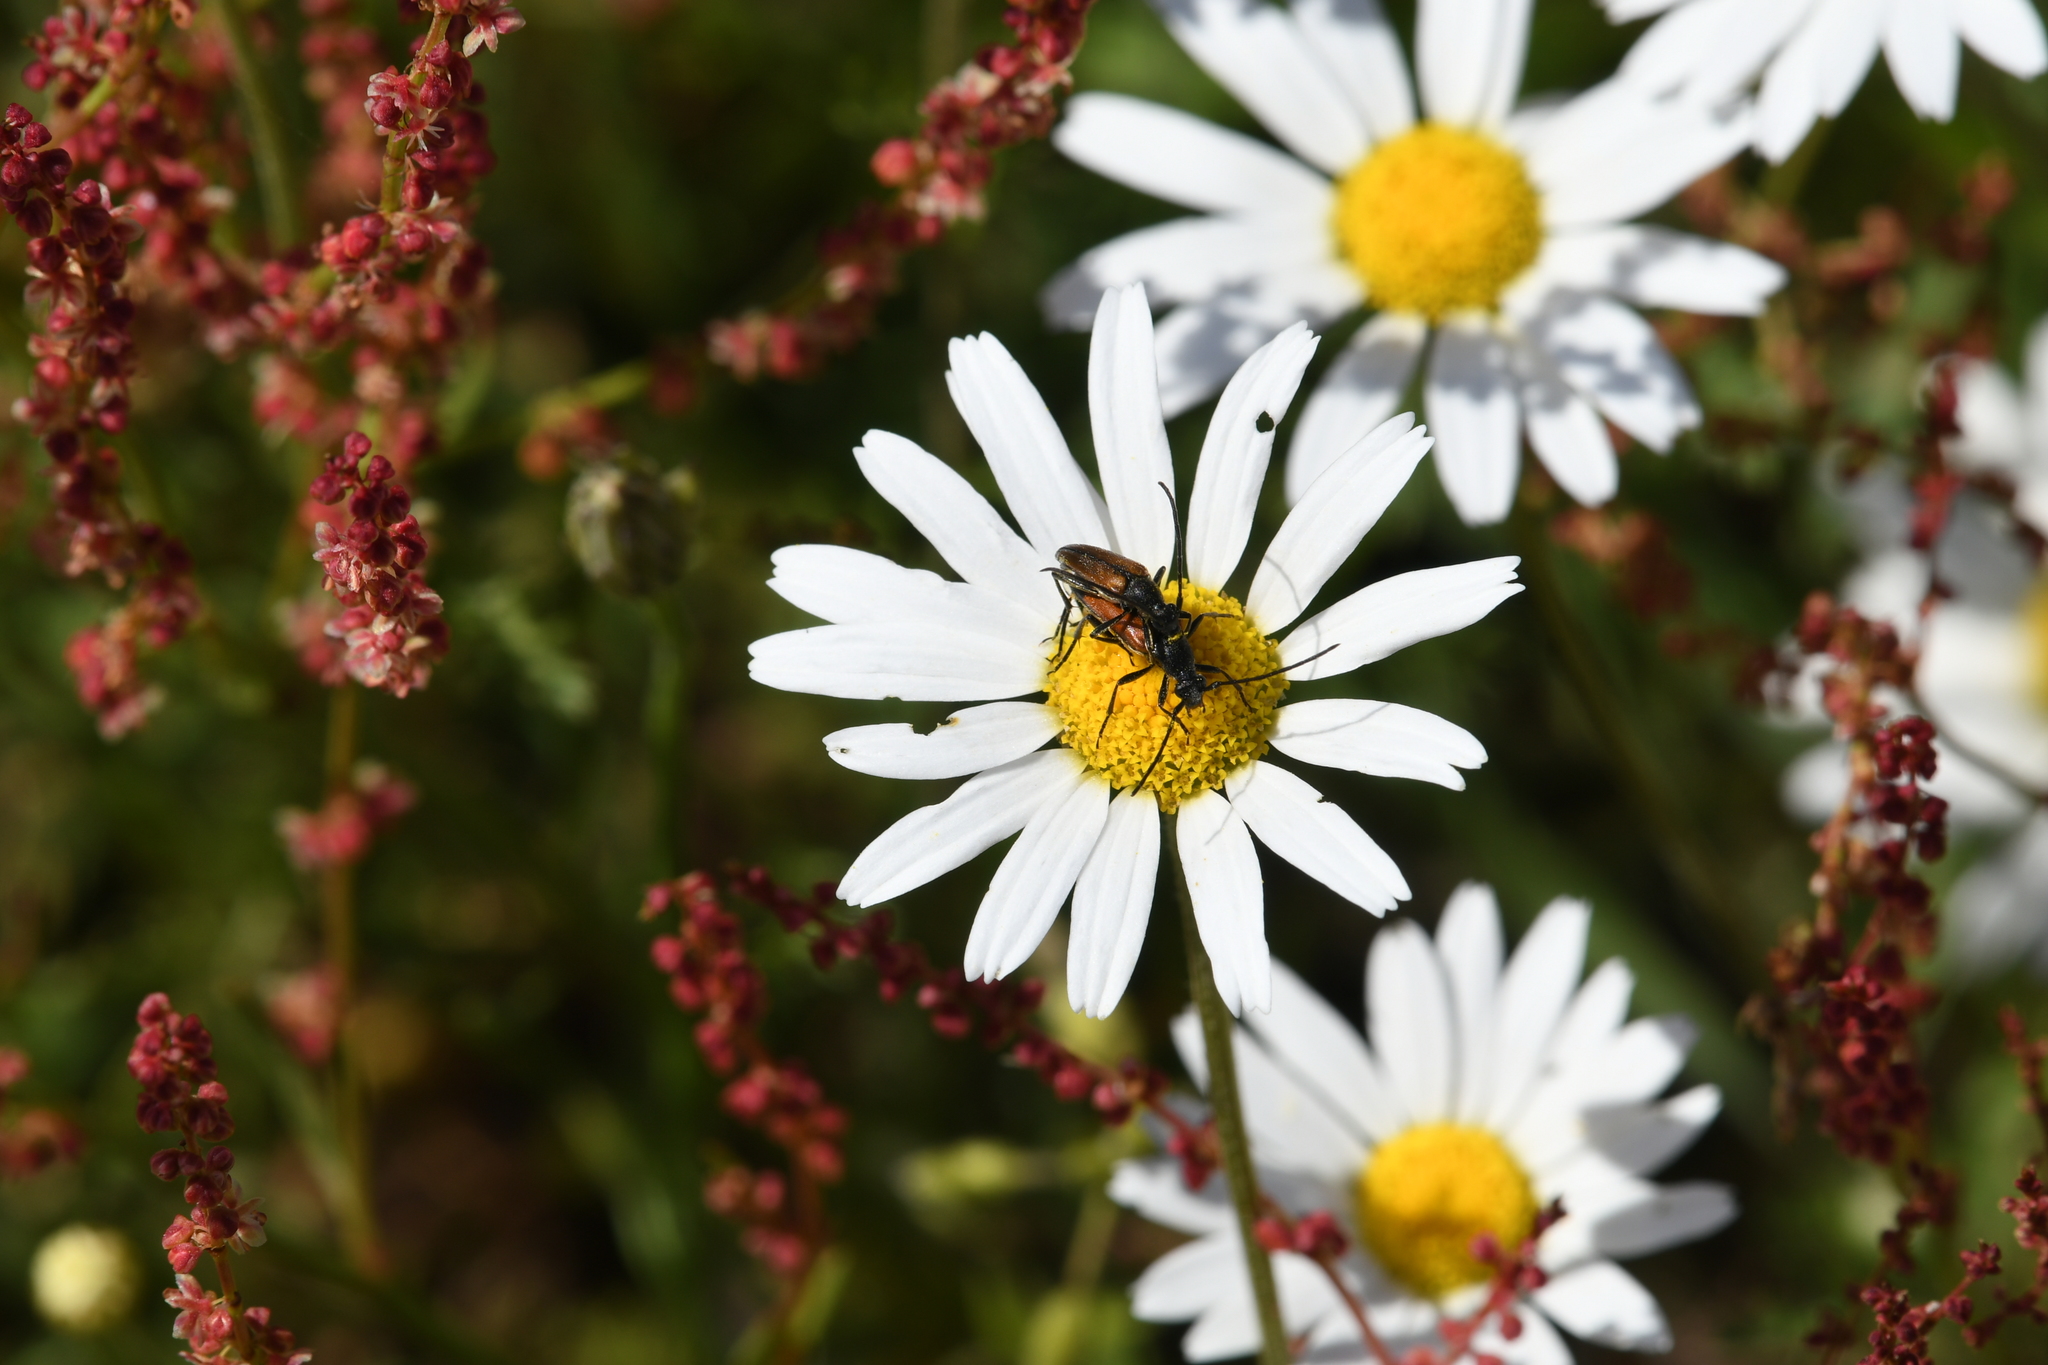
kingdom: Animalia
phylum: Arthropoda
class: Insecta
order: Coleoptera
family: Cerambycidae
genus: Stenurella
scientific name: Stenurella melanura
